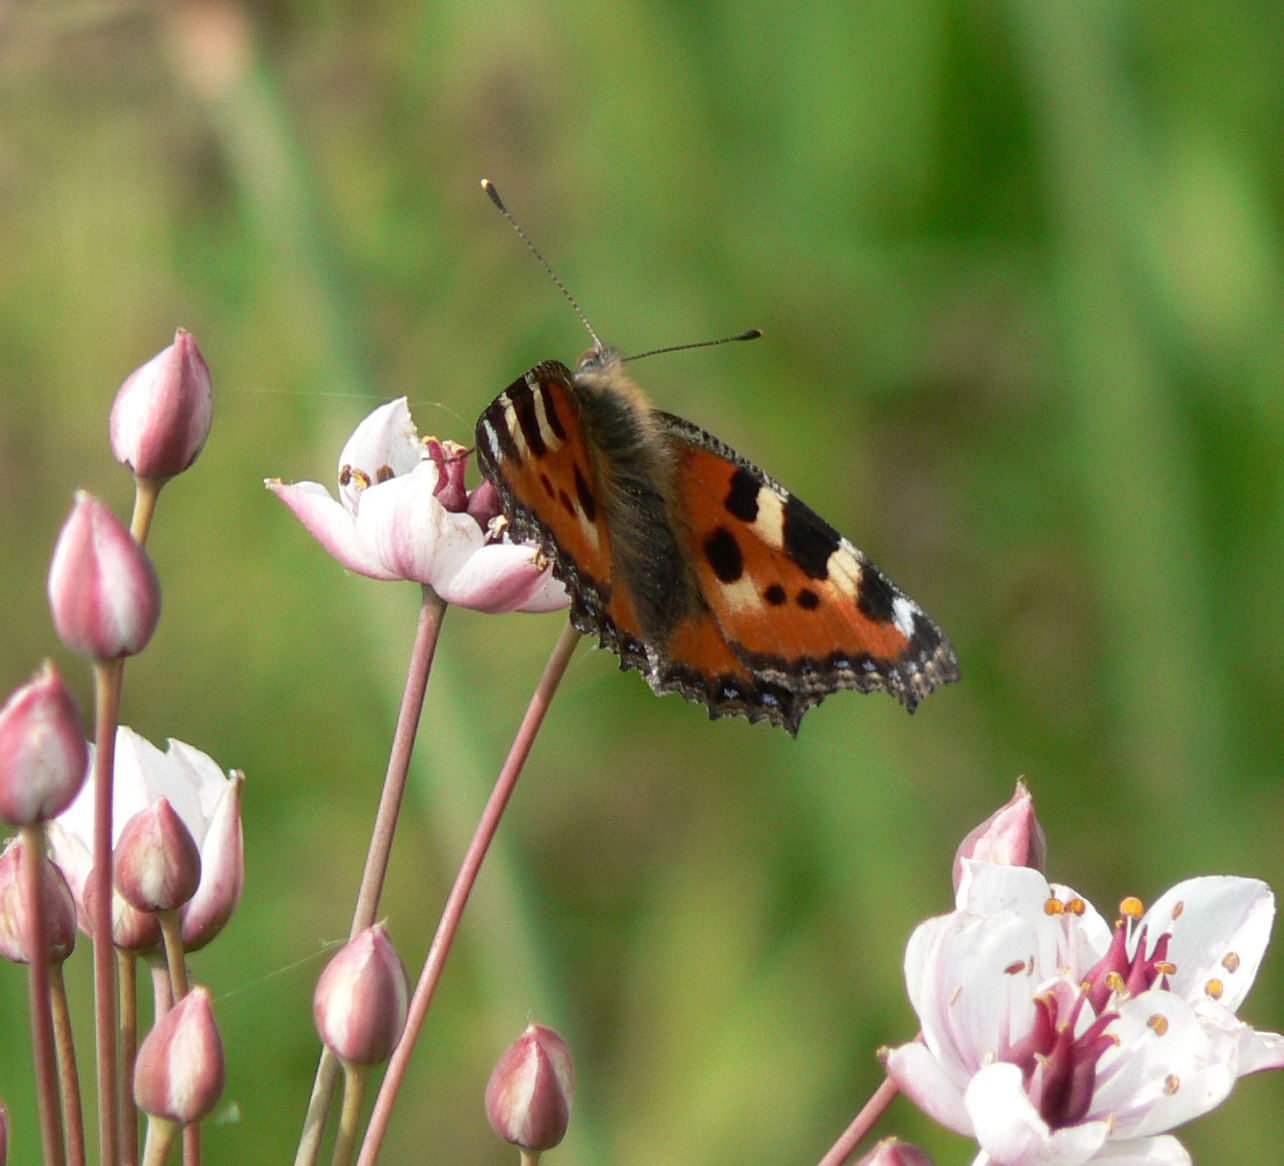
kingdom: Animalia
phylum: Arthropoda
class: Insecta
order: Lepidoptera
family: Nymphalidae
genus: Aglais
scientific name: Aglais urticae
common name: Small tortoiseshell
